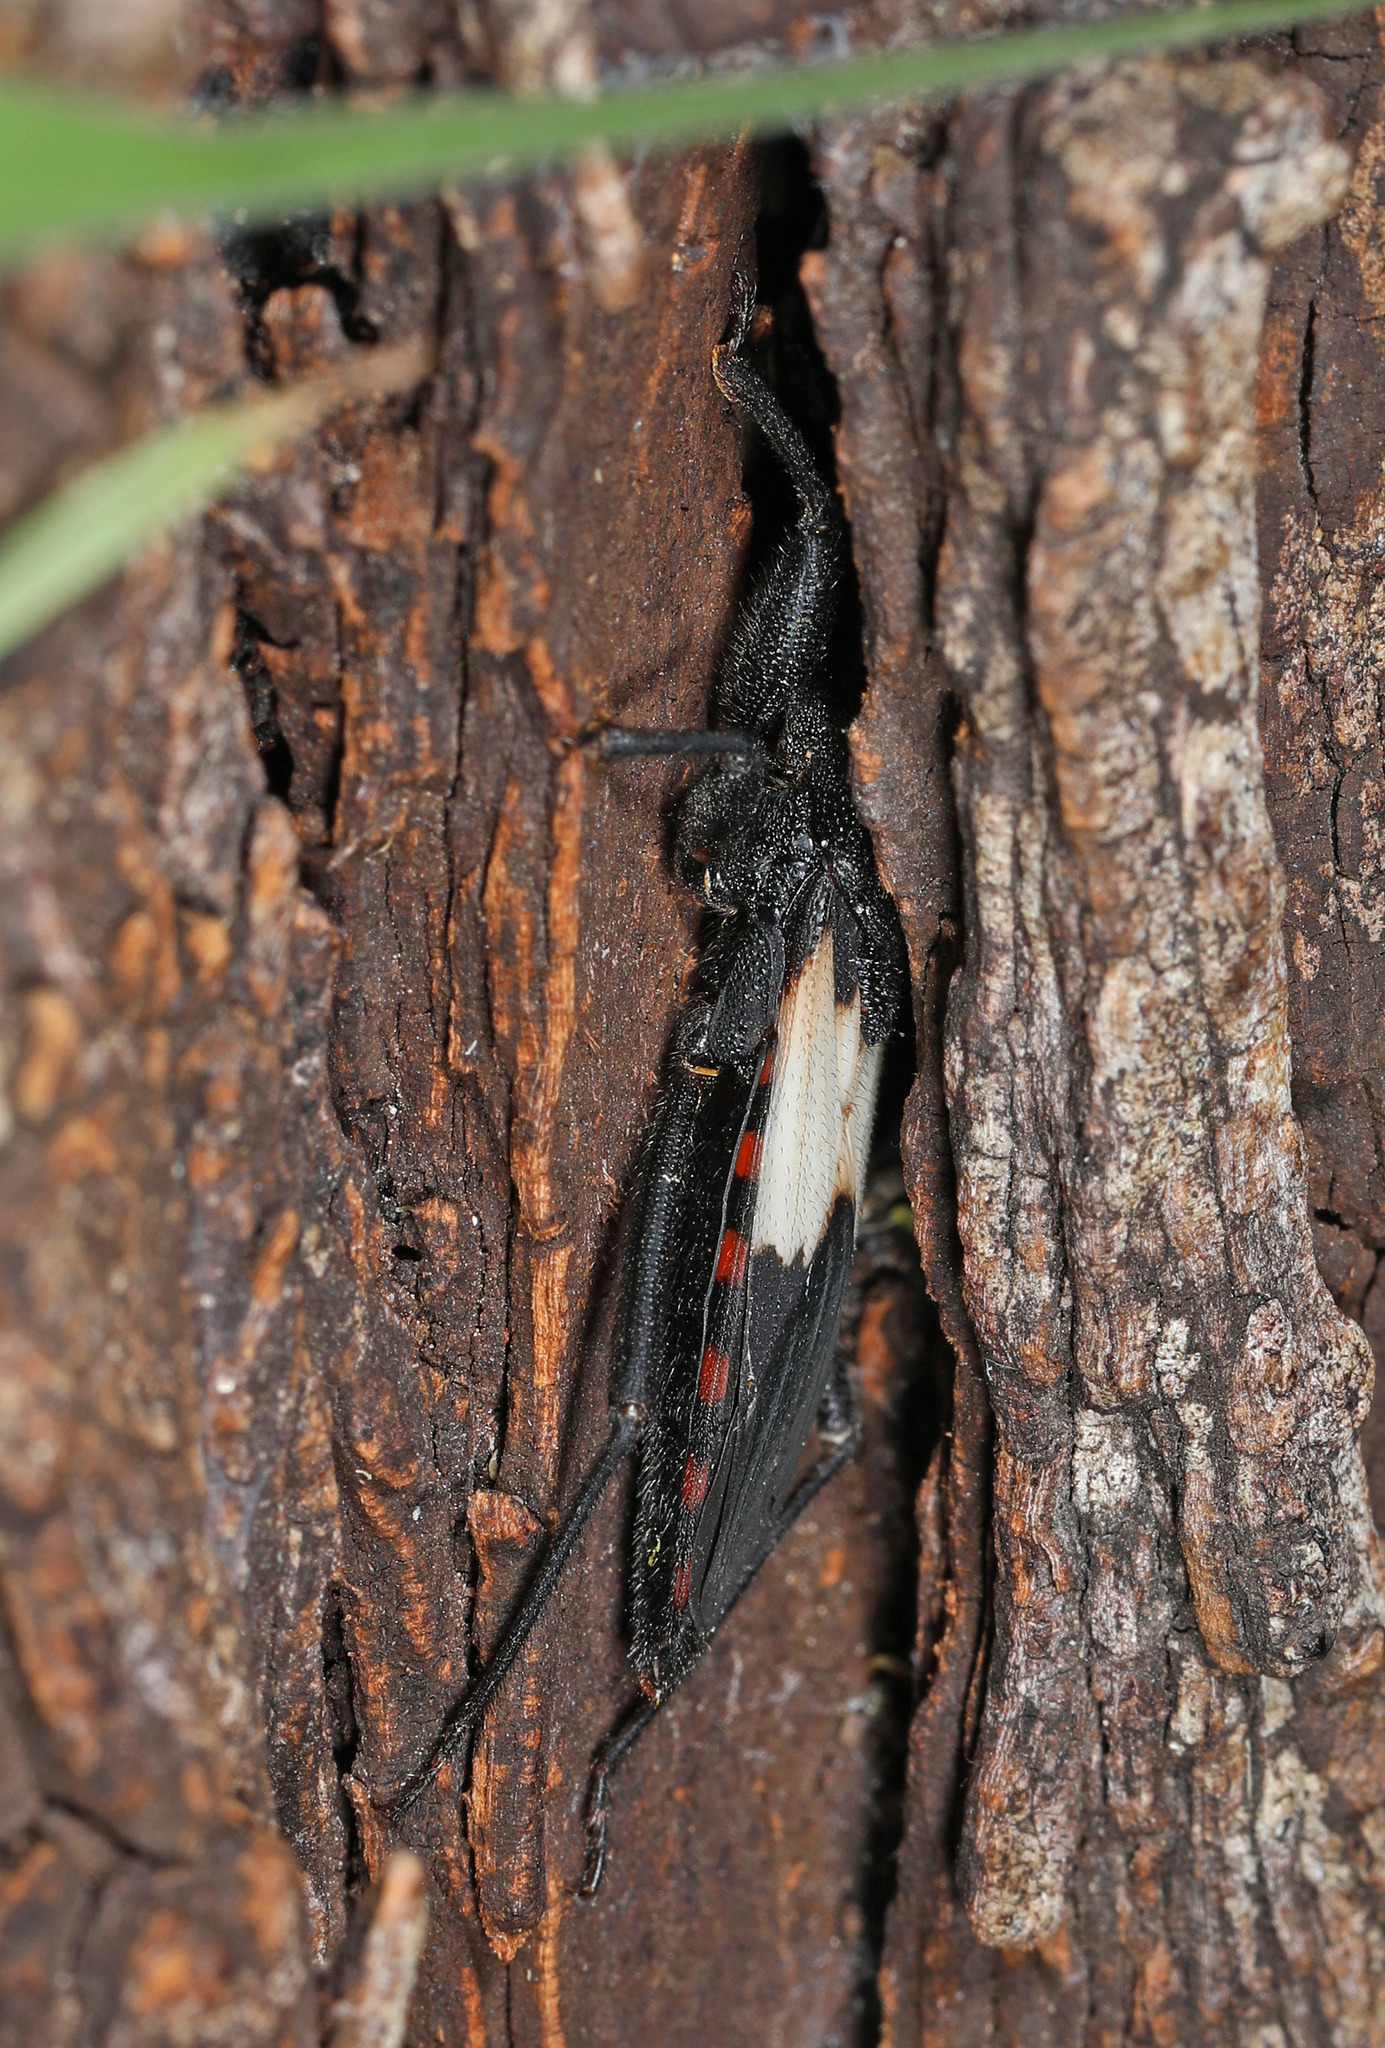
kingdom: Animalia
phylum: Arthropoda
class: Insecta
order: Hemiptera
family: Reduviidae
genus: Microtomus
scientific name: Microtomus luctuosus
